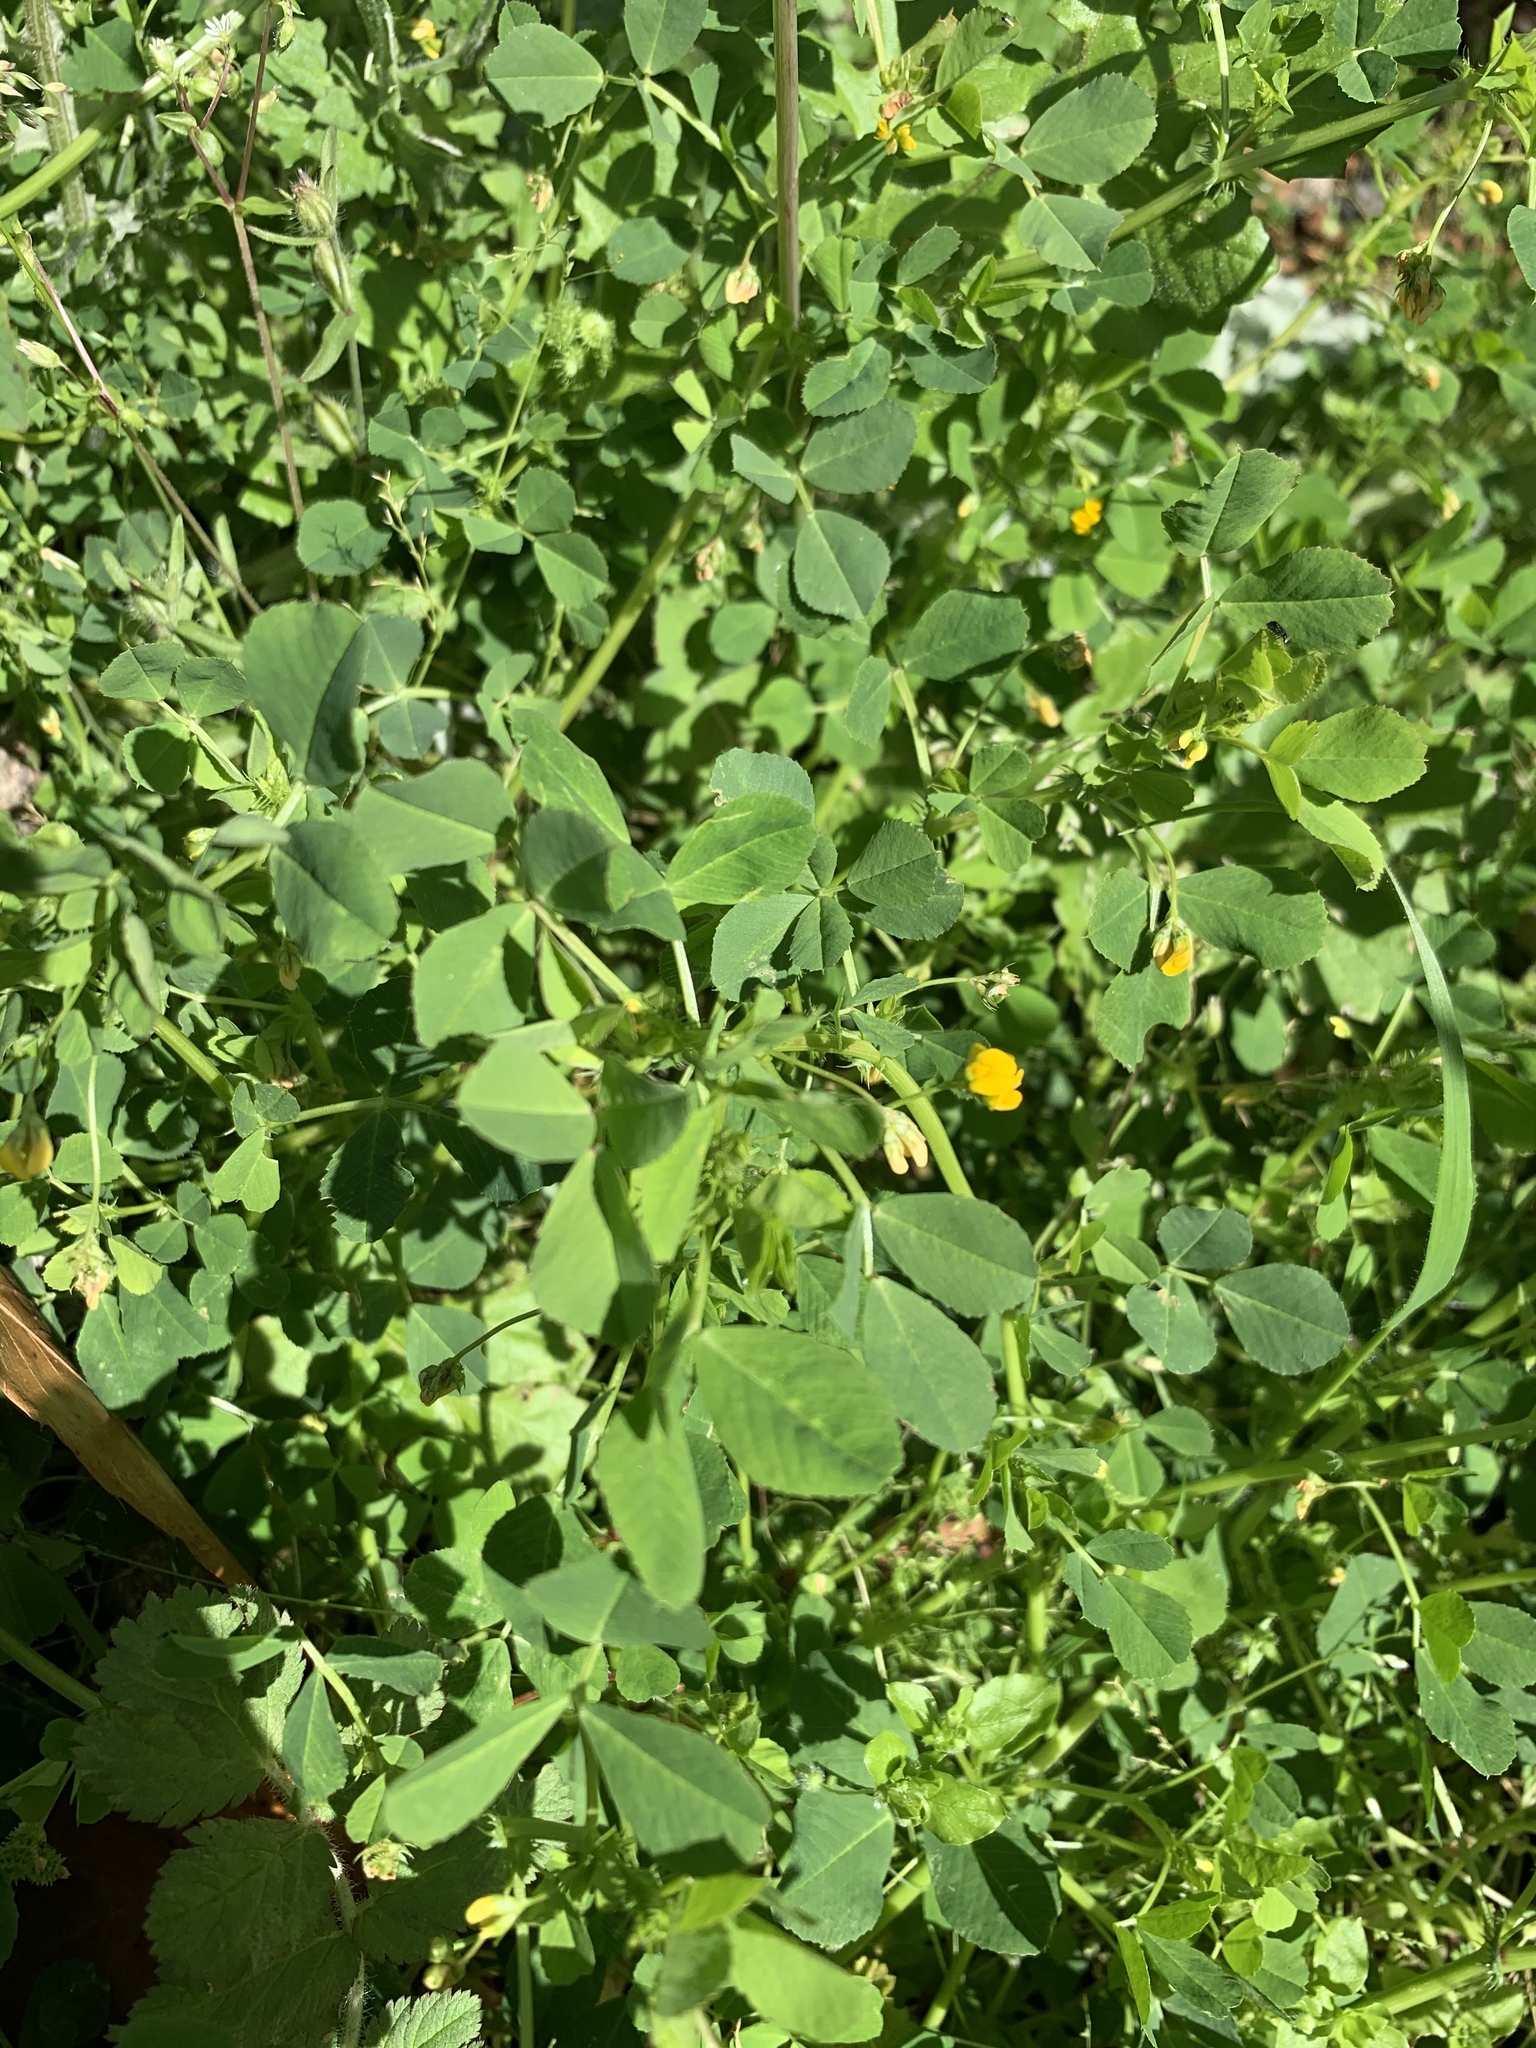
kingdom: Plantae
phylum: Tracheophyta
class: Magnoliopsida
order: Fabales
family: Fabaceae
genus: Medicago
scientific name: Medicago polymorpha
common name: Burclover
